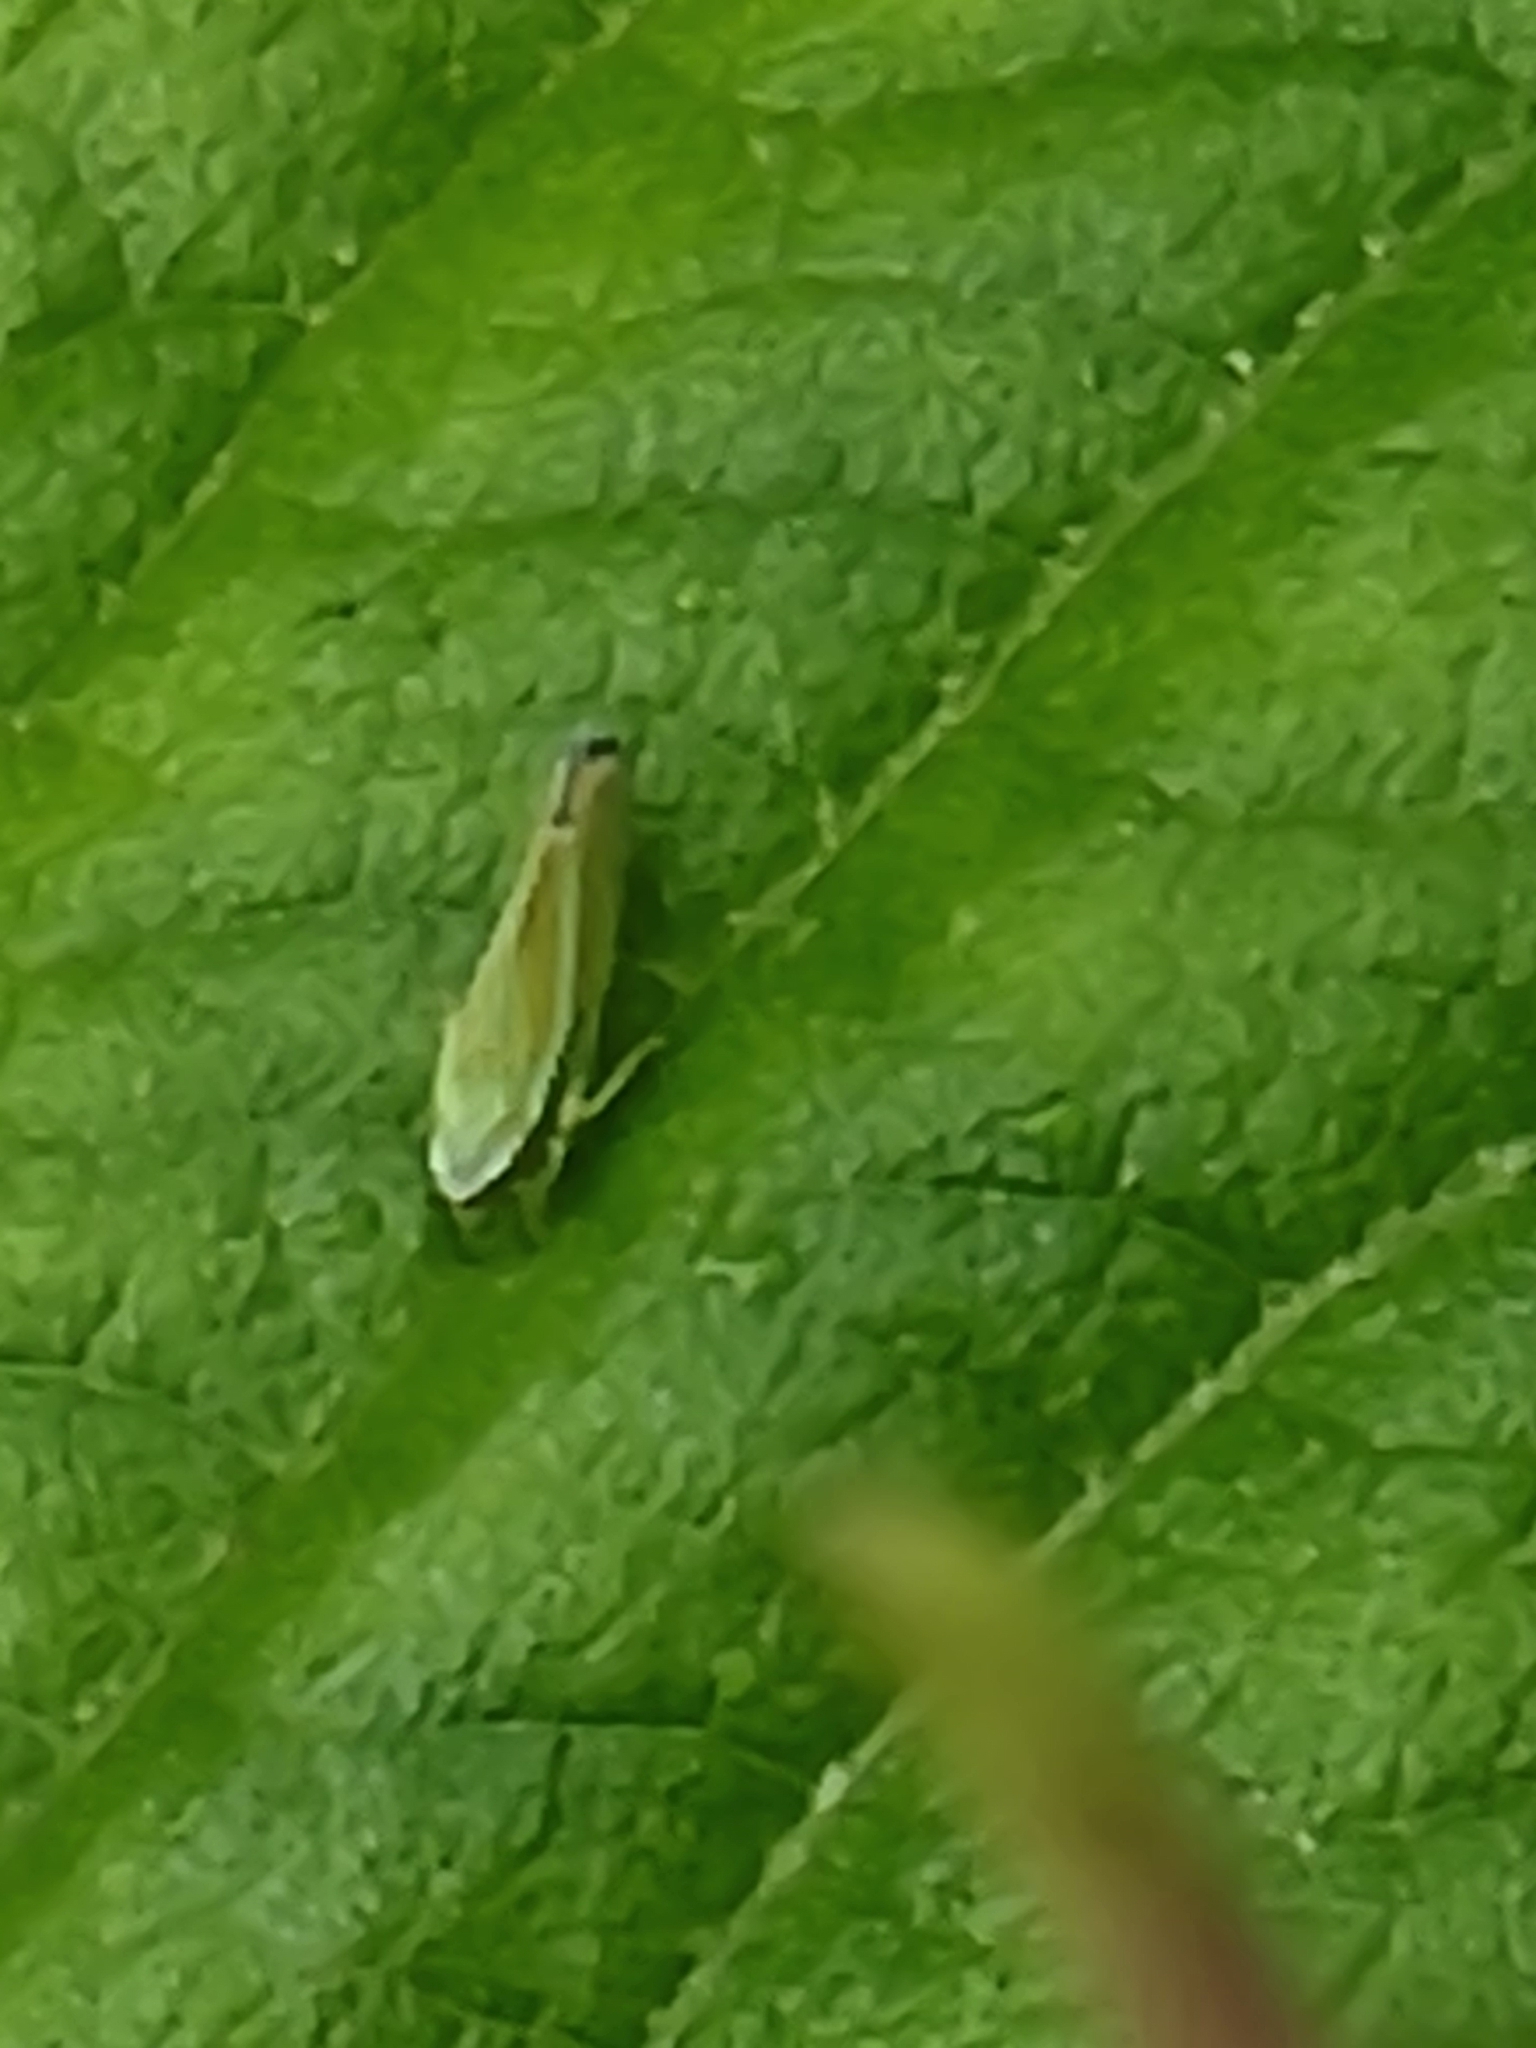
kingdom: Animalia
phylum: Arthropoda
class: Insecta
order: Hemiptera
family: Cicadellidae
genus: Graphocephala
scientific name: Graphocephala versuta
